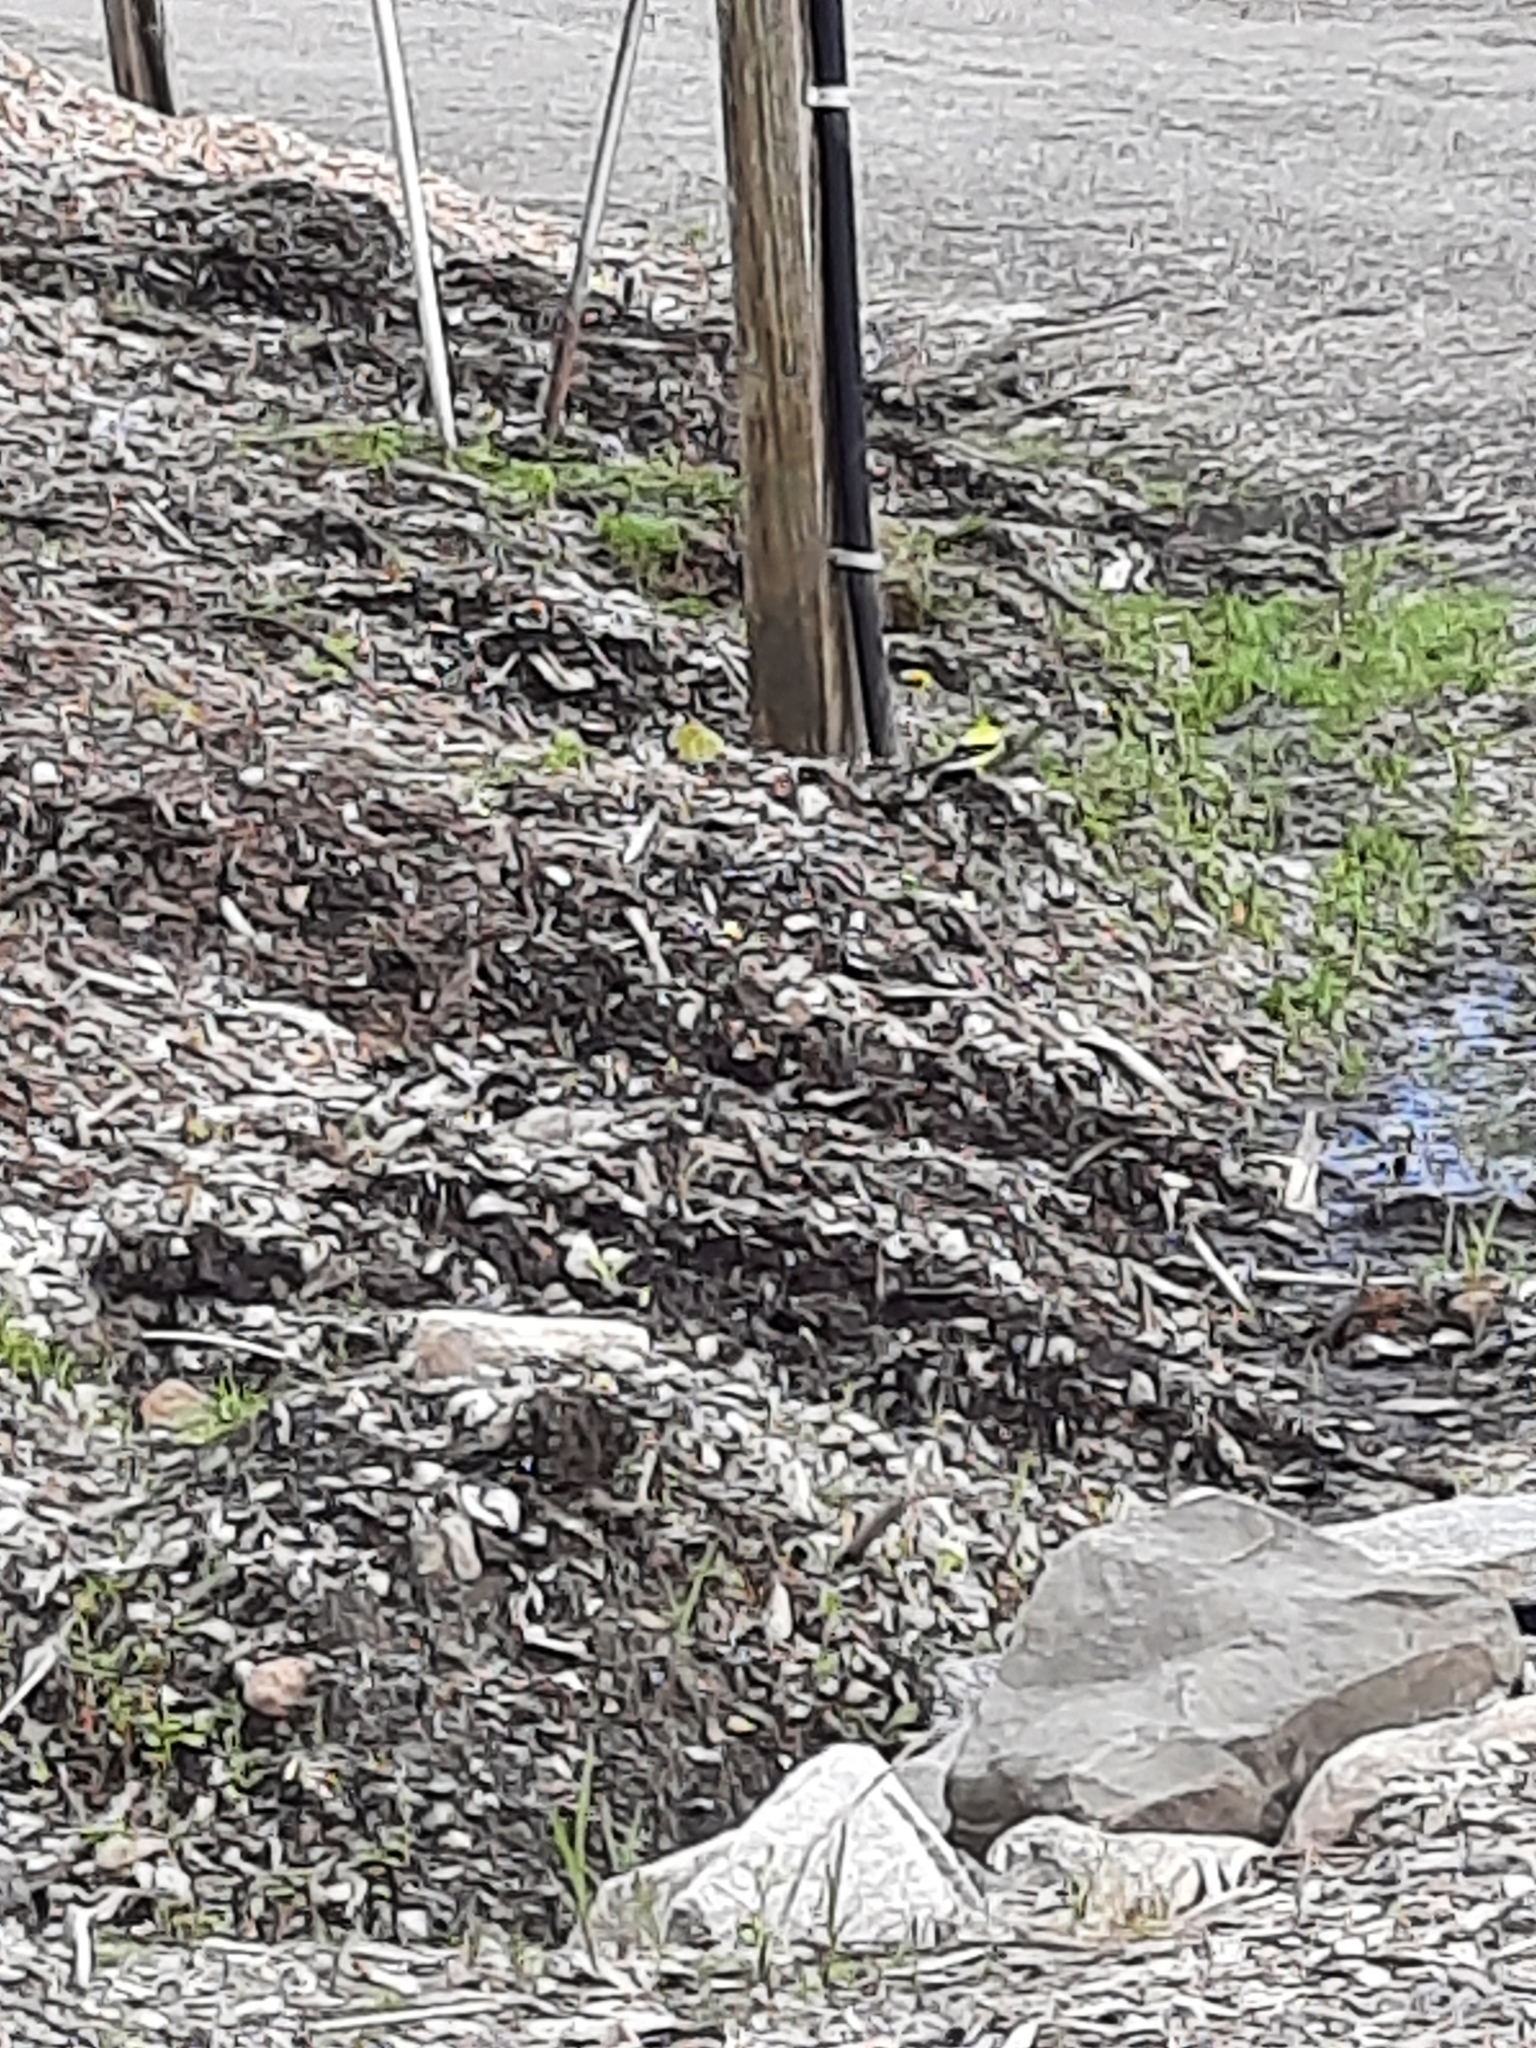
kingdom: Animalia
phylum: Chordata
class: Aves
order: Passeriformes
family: Fringillidae
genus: Spinus
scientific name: Spinus tristis
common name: American goldfinch
